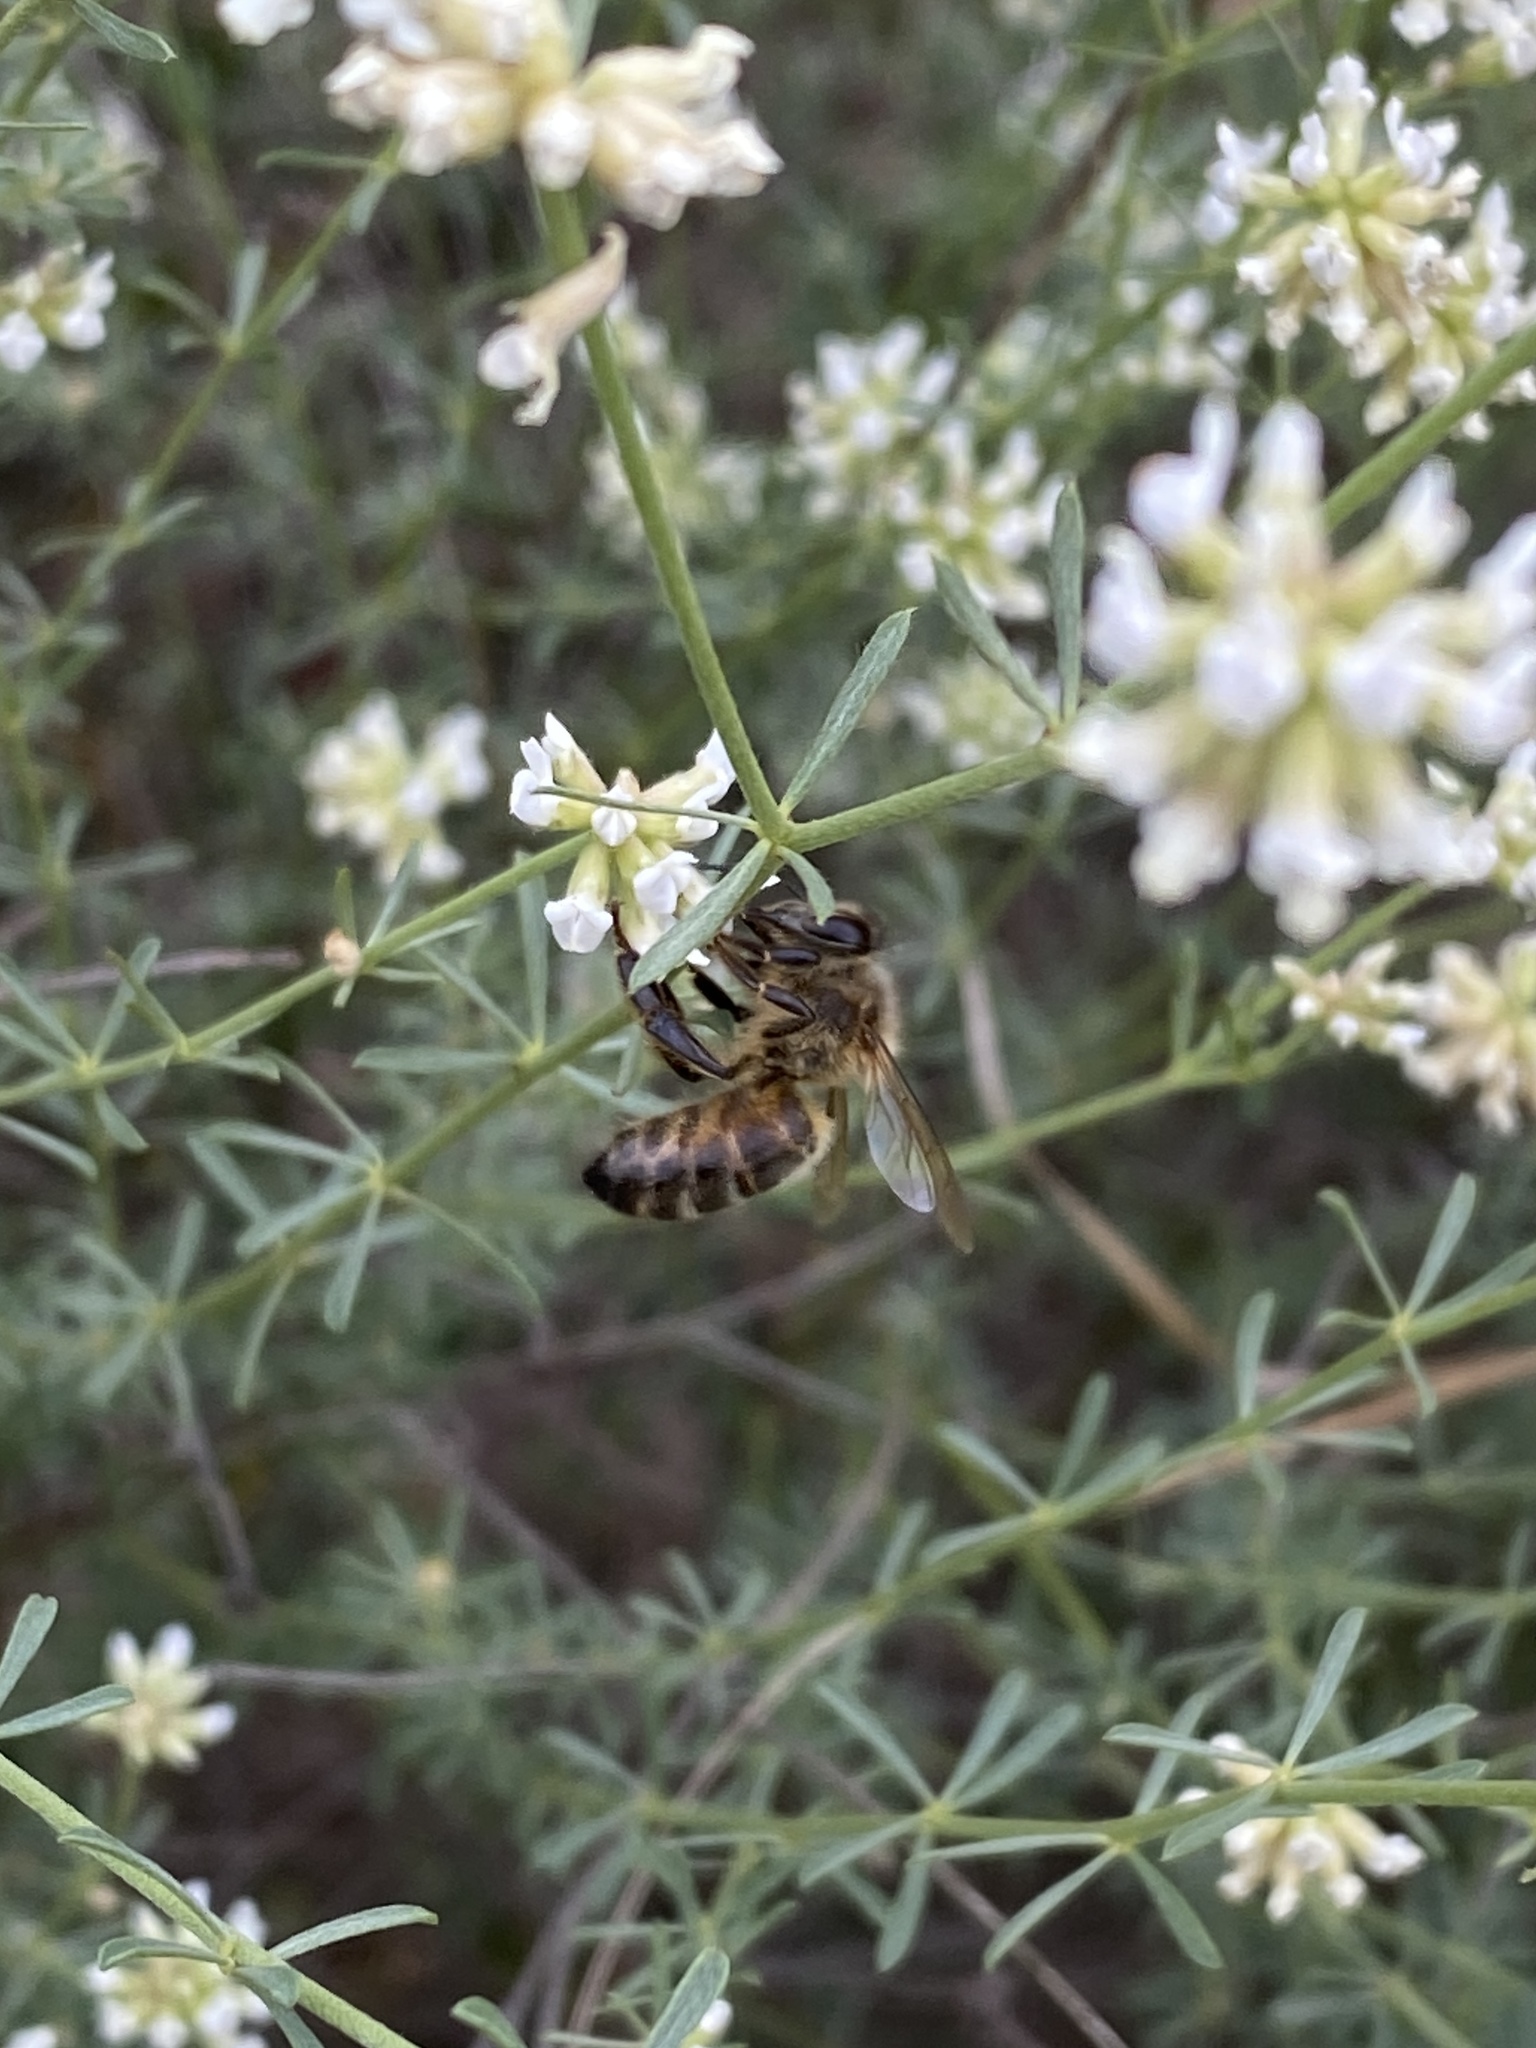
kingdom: Animalia
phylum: Arthropoda
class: Insecta
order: Hymenoptera
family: Apidae
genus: Apis
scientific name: Apis mellifera
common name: Honey bee
